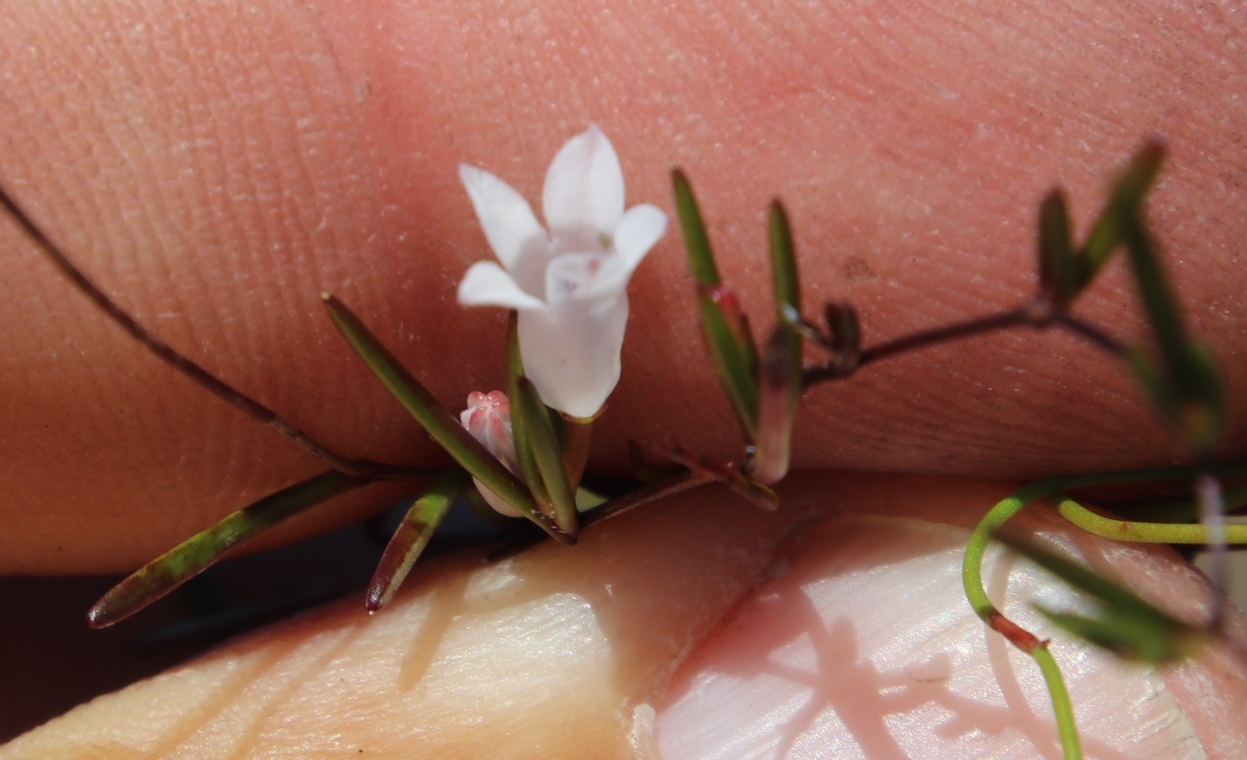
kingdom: Plantae
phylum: Tracheophyta
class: Magnoliopsida
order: Asterales
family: Campanulaceae
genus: Prismatocarpus
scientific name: Prismatocarpus sessilis
